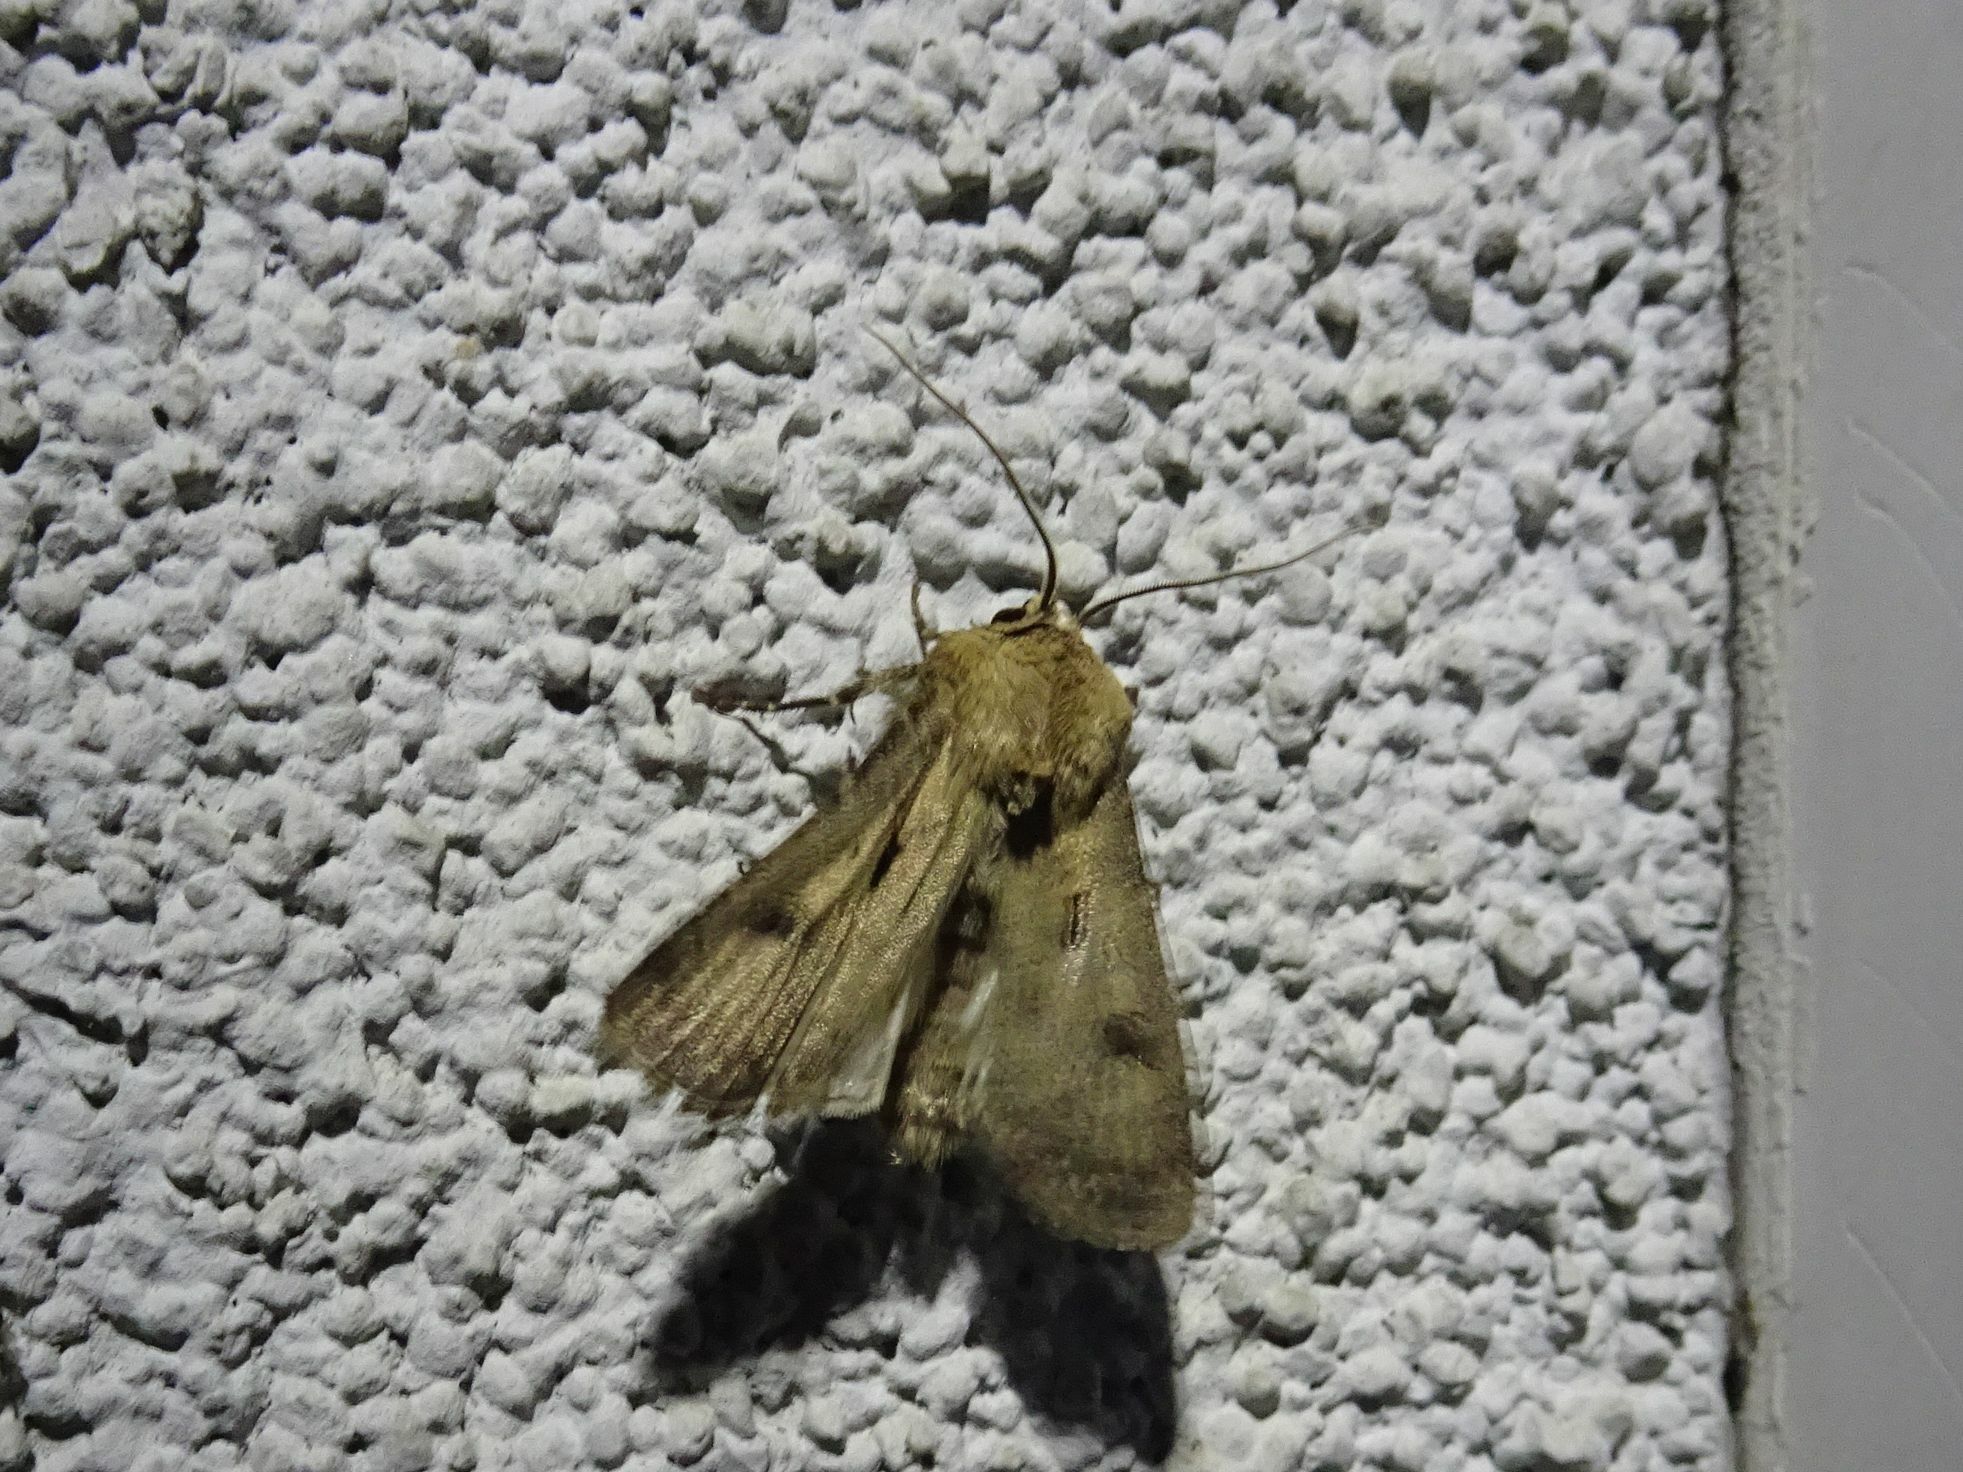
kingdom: Animalia
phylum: Arthropoda
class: Insecta
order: Lepidoptera
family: Noctuidae
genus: Agrotis
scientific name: Agrotis exclamationis
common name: Heart and dart
